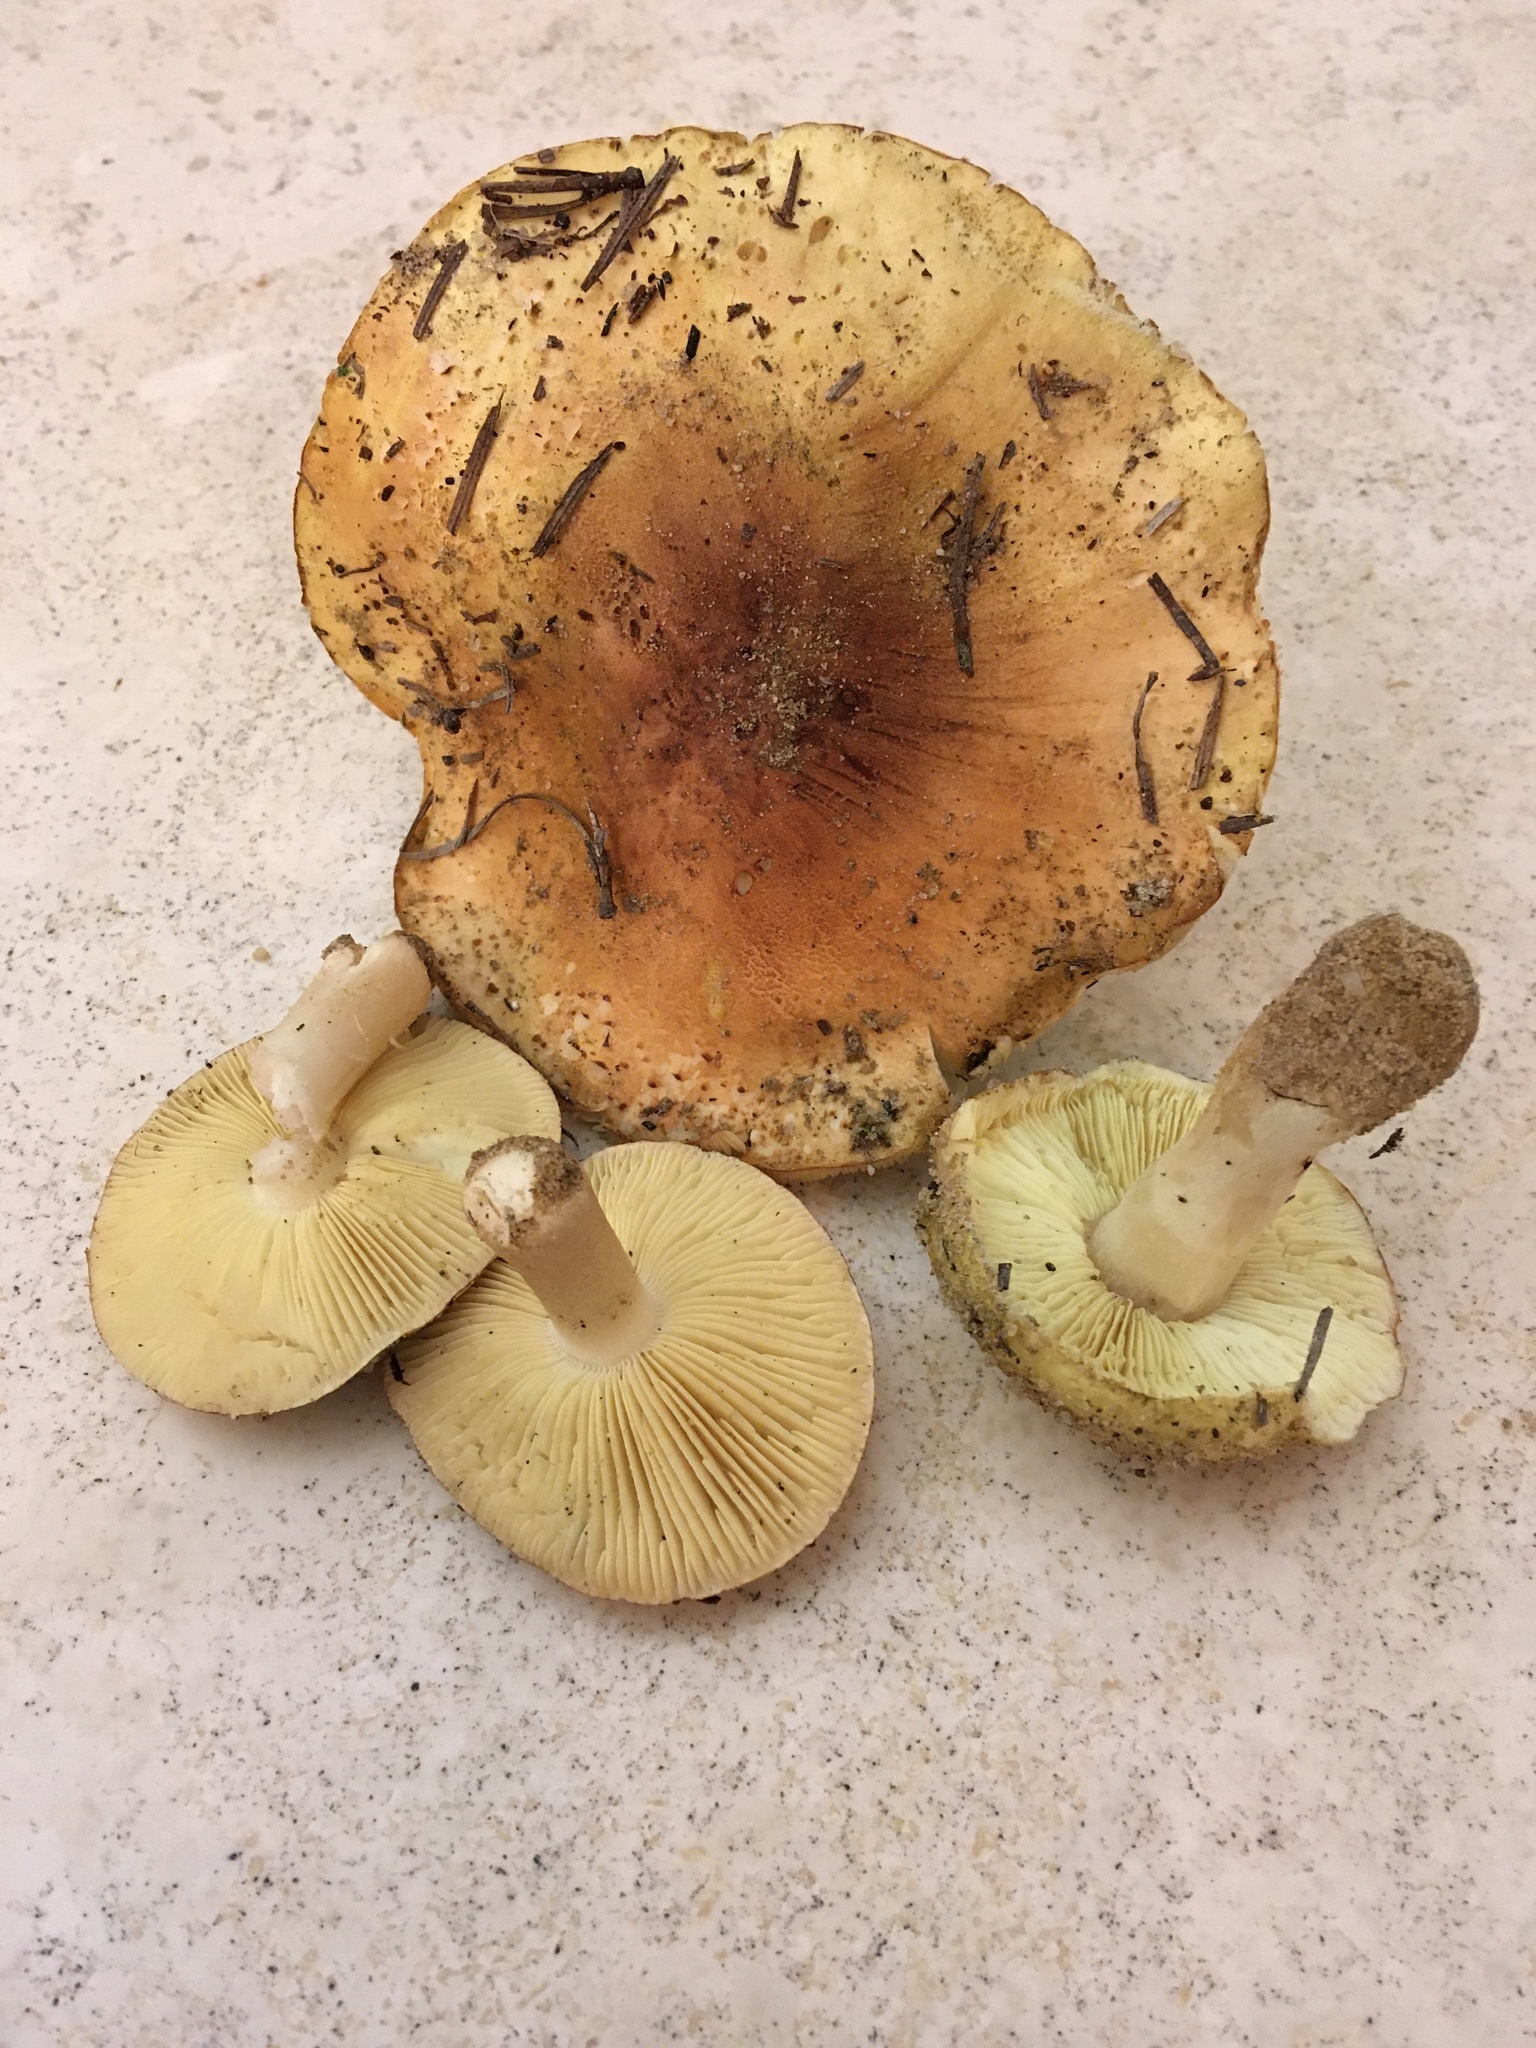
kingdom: Fungi
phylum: Basidiomycota
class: Agaricomycetes
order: Agaricales
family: Tricholomataceae
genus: Tricholoma
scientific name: Tricholoma equestre
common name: Yellow knight
